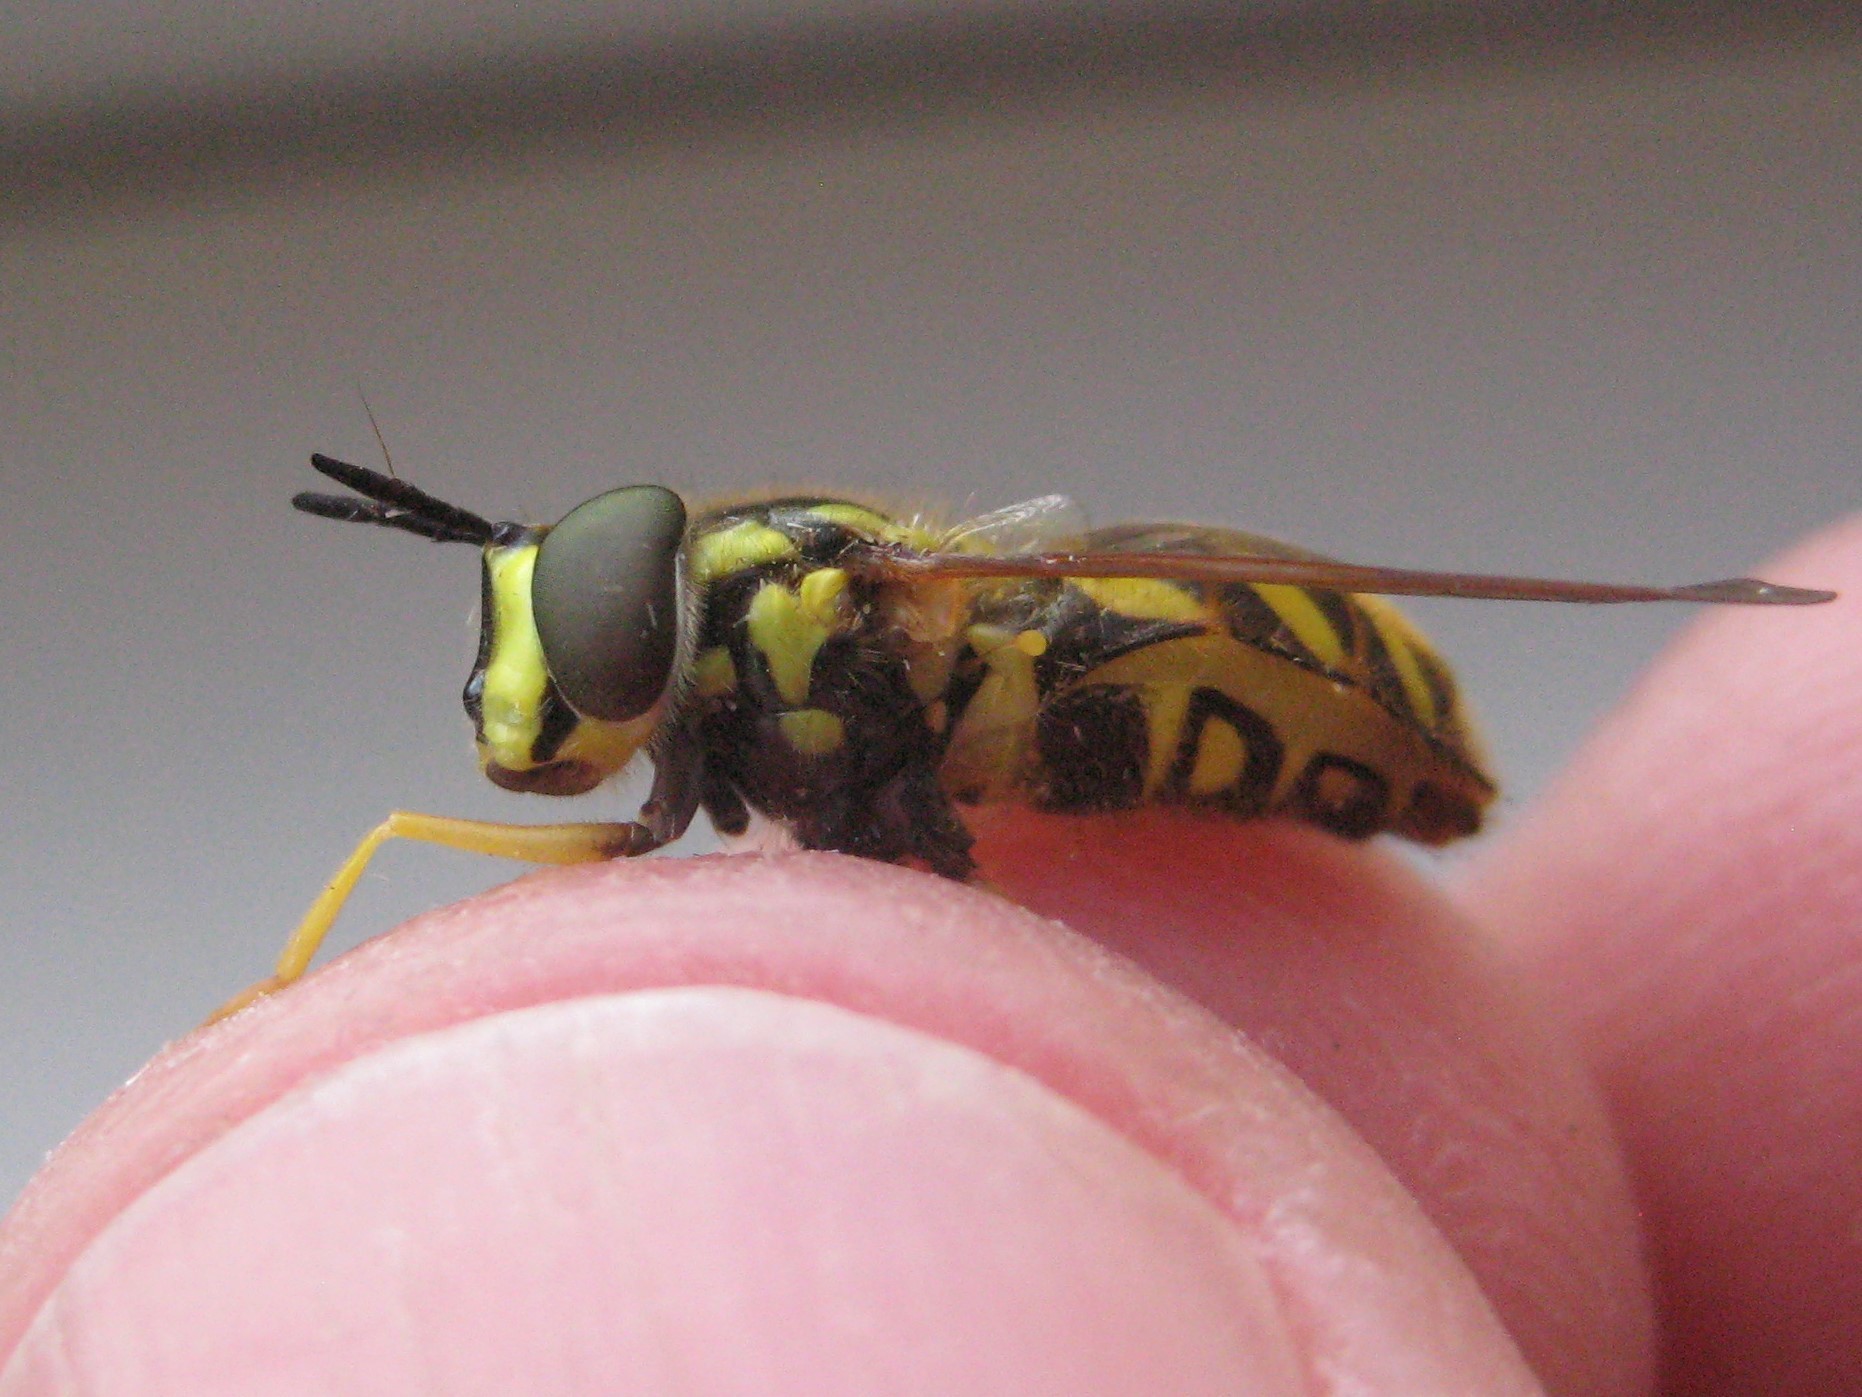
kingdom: Animalia
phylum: Arthropoda
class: Insecta
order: Diptera
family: Syrphidae
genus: Chrysotoxum
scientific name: Chrysotoxum pubescens
